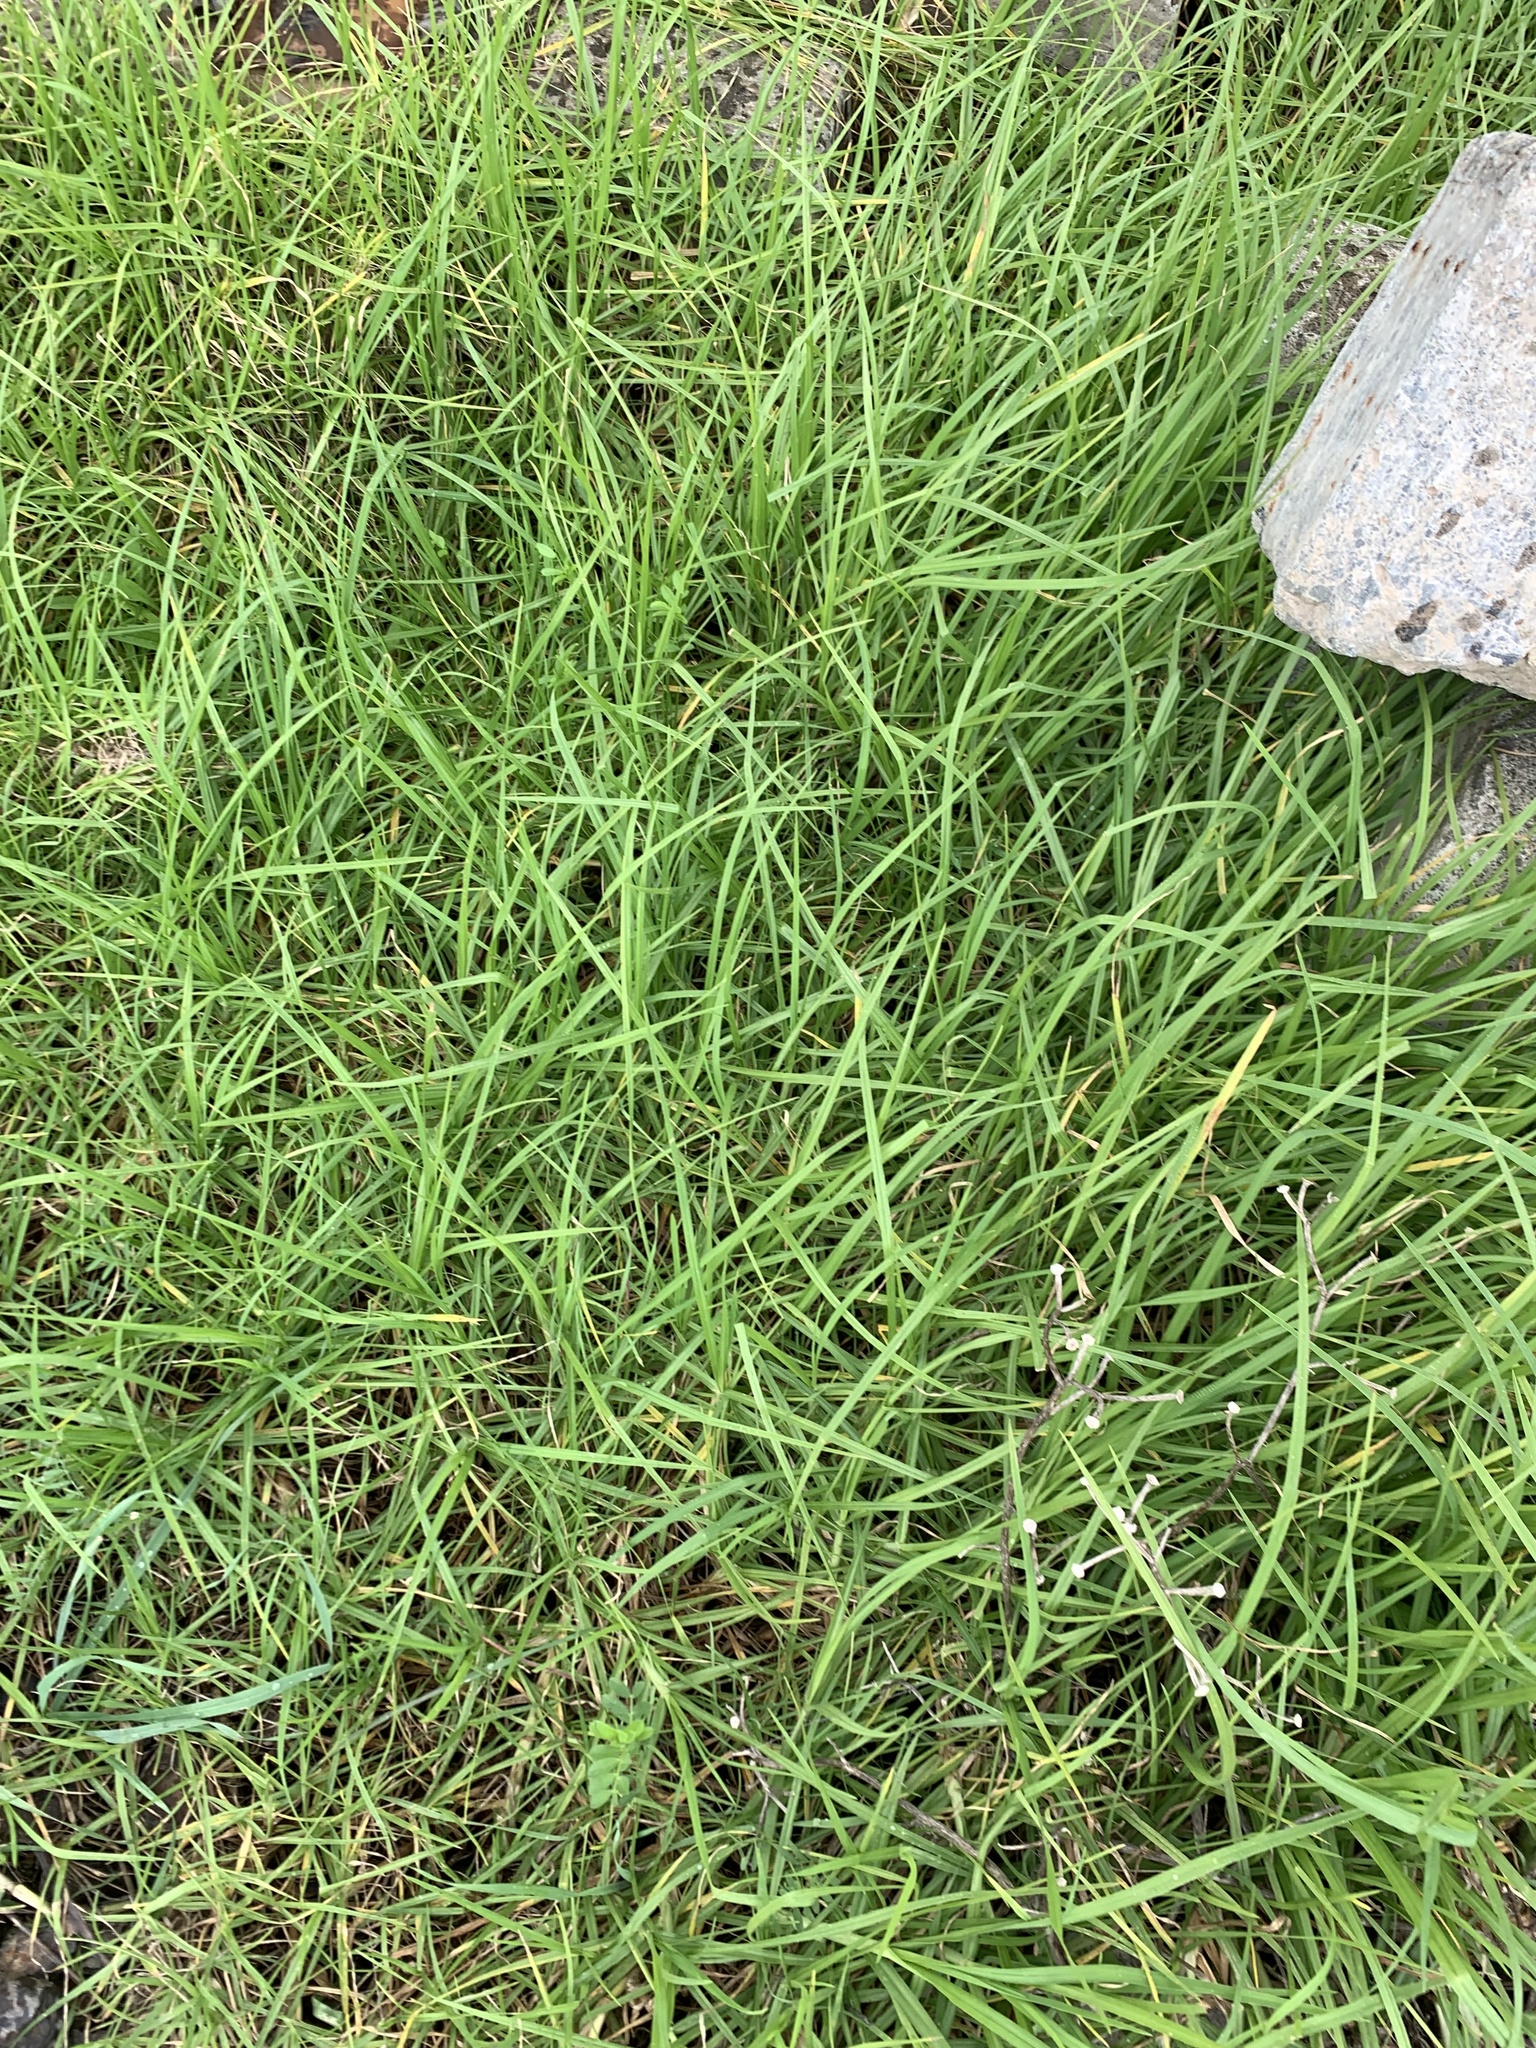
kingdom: Plantae
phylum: Tracheophyta
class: Liliopsida
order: Poales
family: Poaceae
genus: Cenchrus
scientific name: Cenchrus clandestinus
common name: Kikuyugrass
